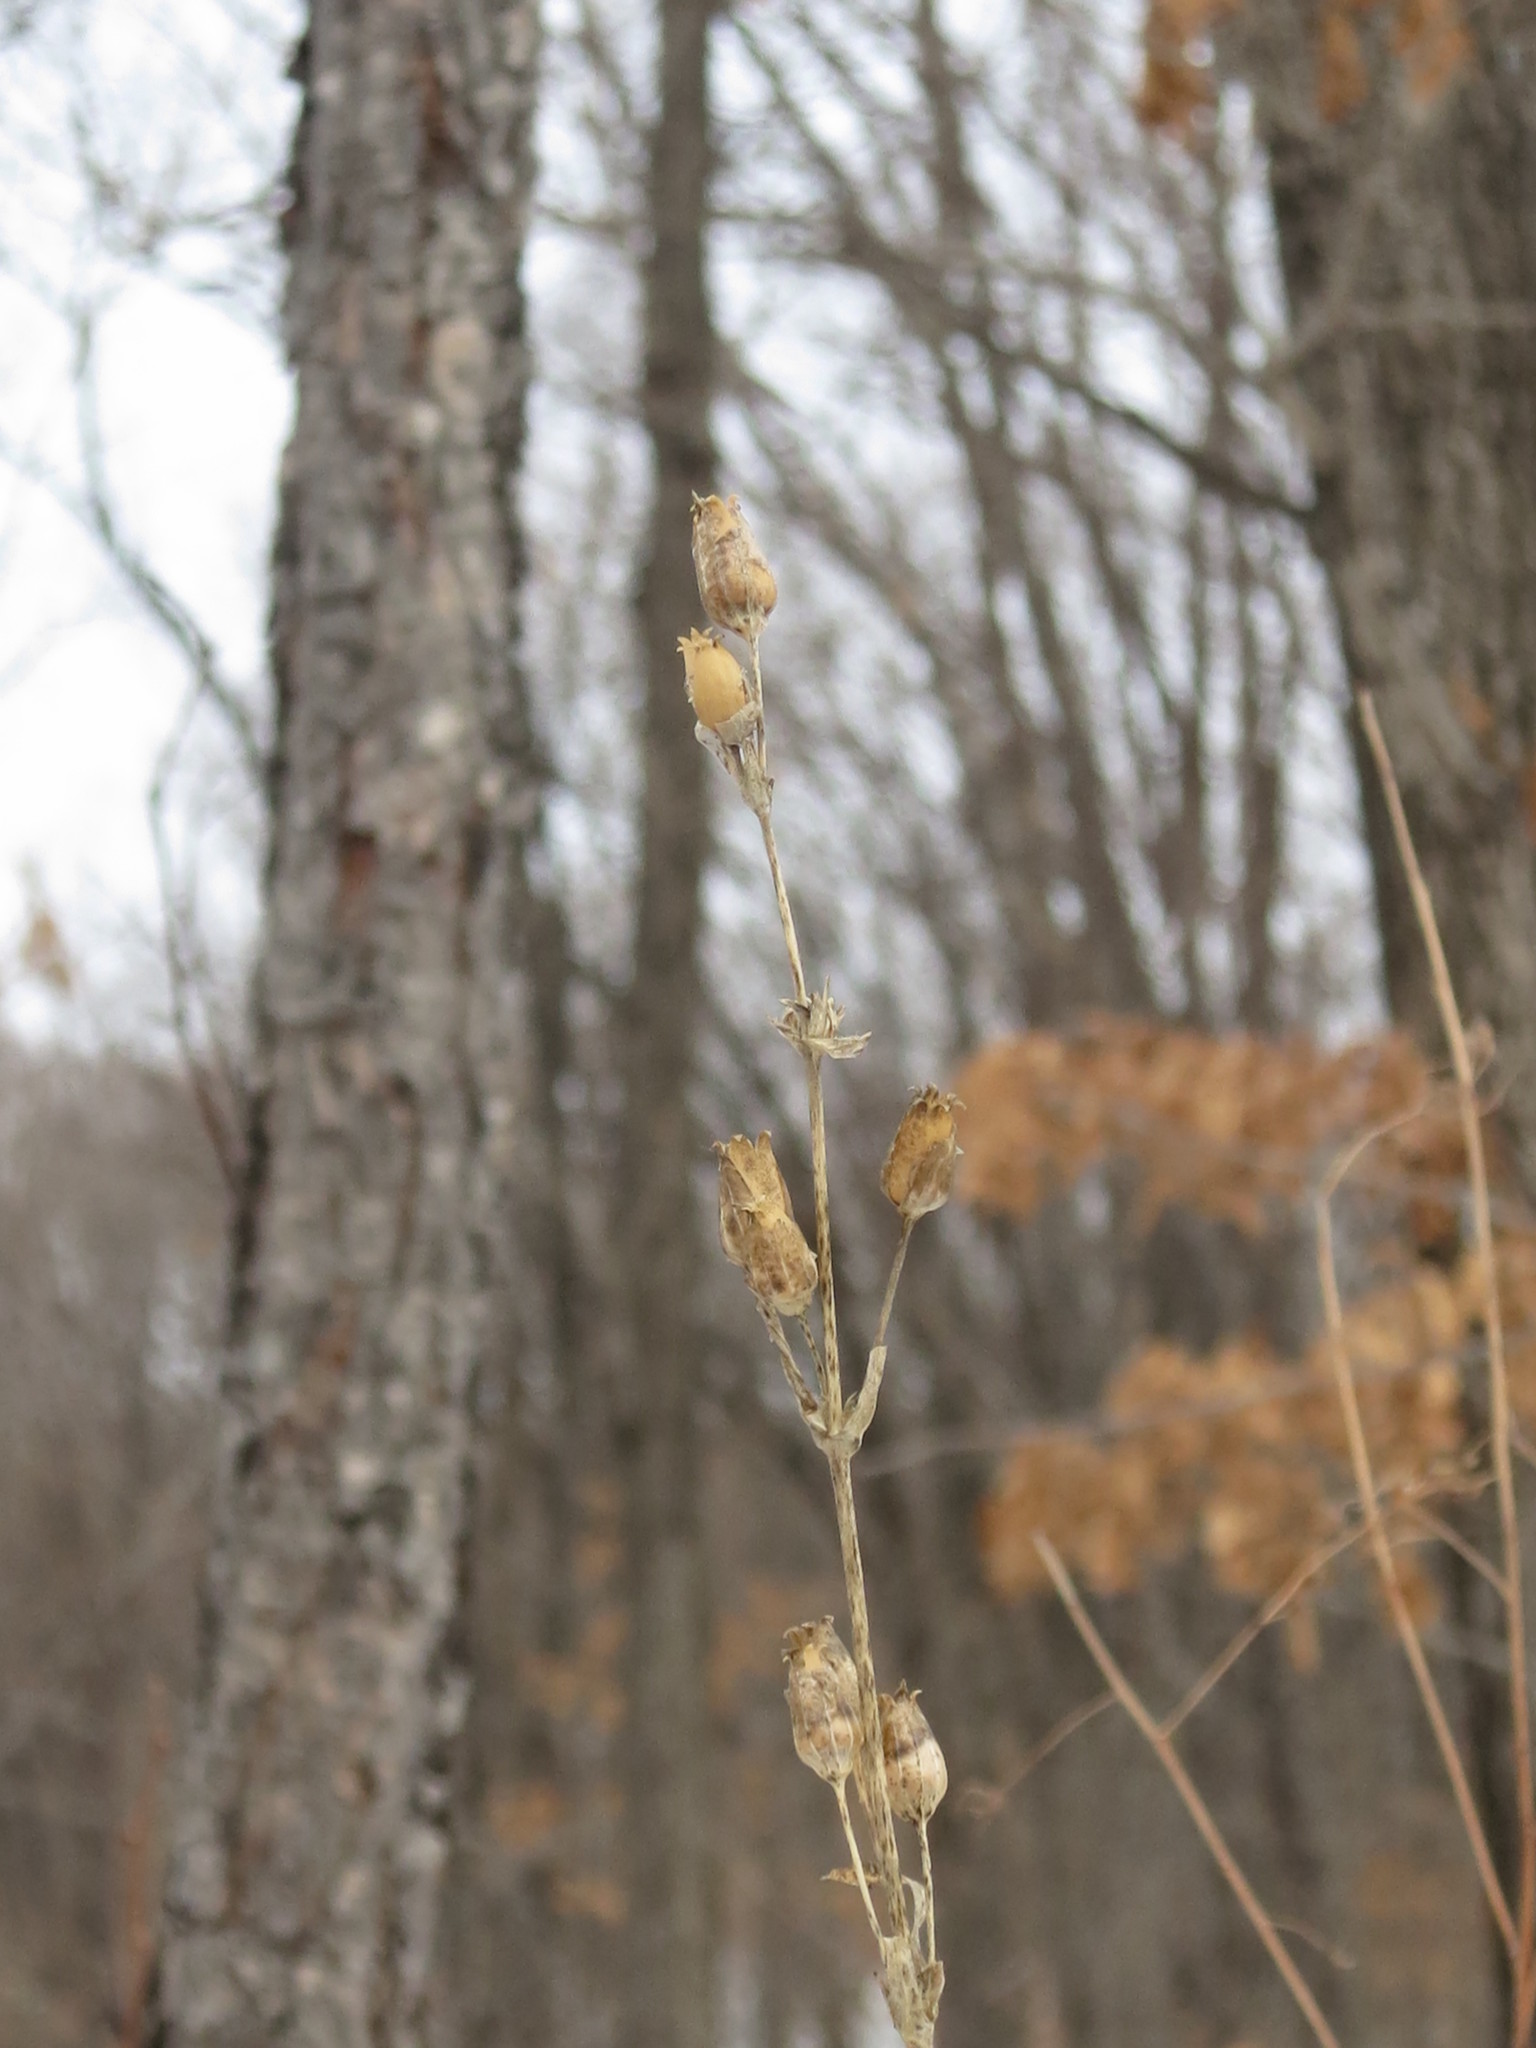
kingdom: Plantae
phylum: Tracheophyta
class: Magnoliopsida
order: Caryophyllales
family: Caryophyllaceae
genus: Silene
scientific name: Silene firma
